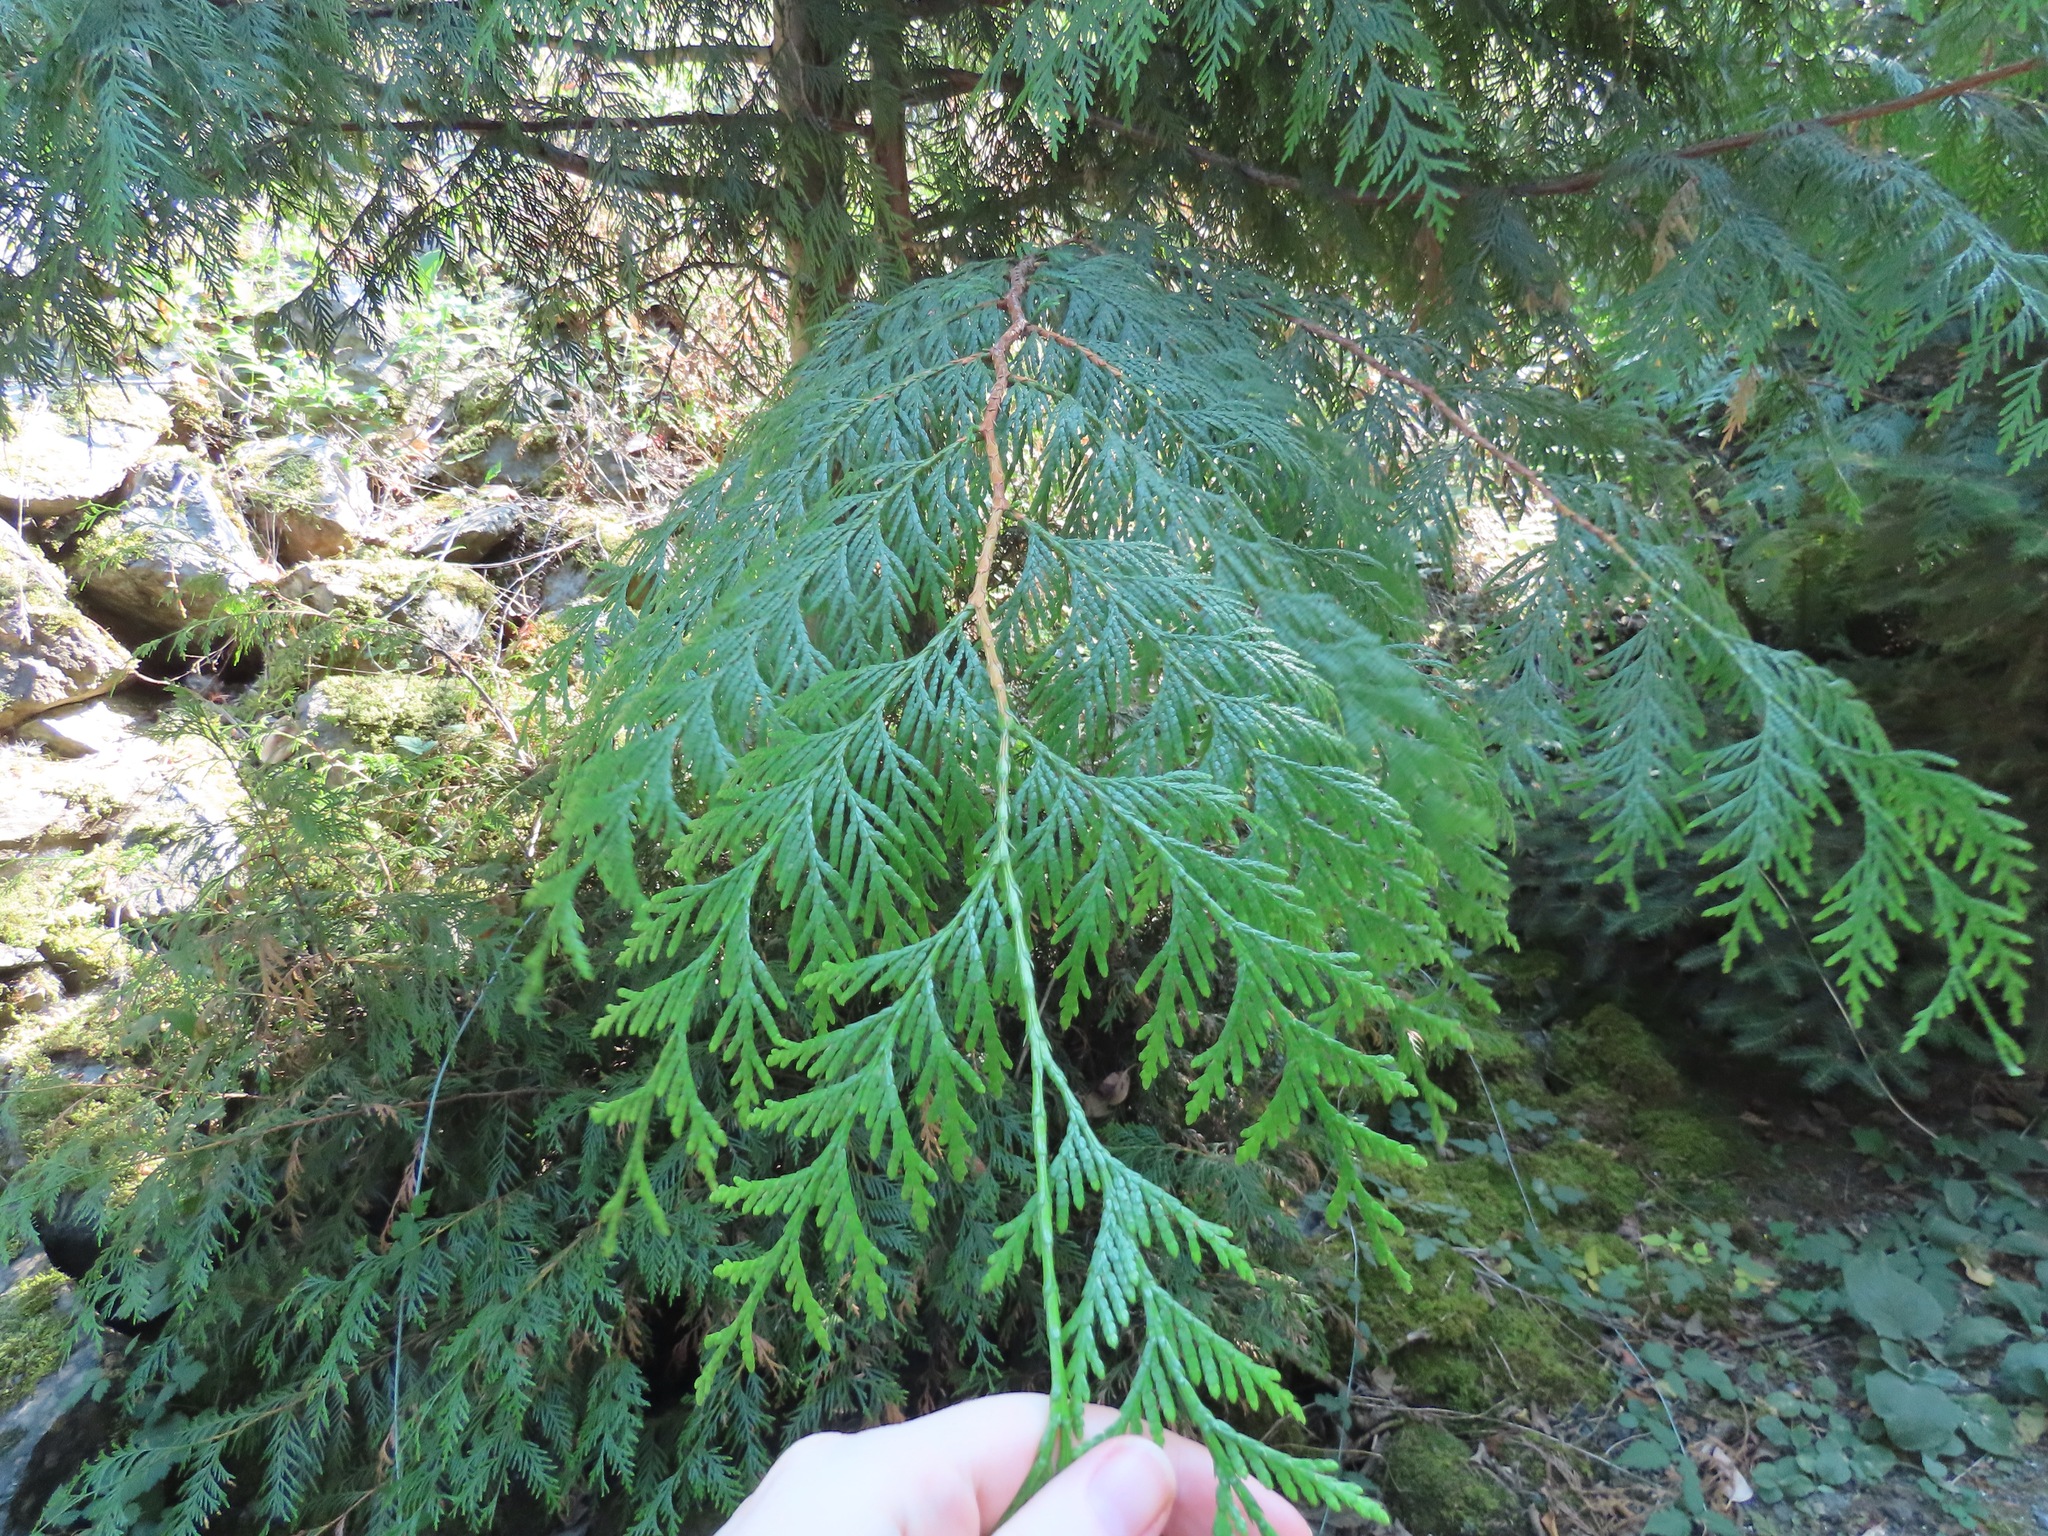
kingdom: Plantae
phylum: Tracheophyta
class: Pinopsida
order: Pinales
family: Cupressaceae
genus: Thuja
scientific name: Thuja plicata
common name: Western red-cedar
